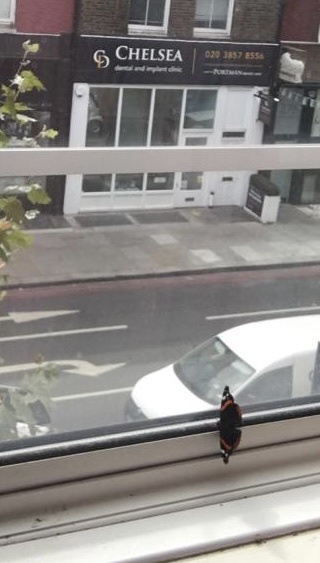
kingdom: Animalia
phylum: Arthropoda
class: Insecta
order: Lepidoptera
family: Nymphalidae
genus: Vanessa
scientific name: Vanessa atalanta
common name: Red admiral
